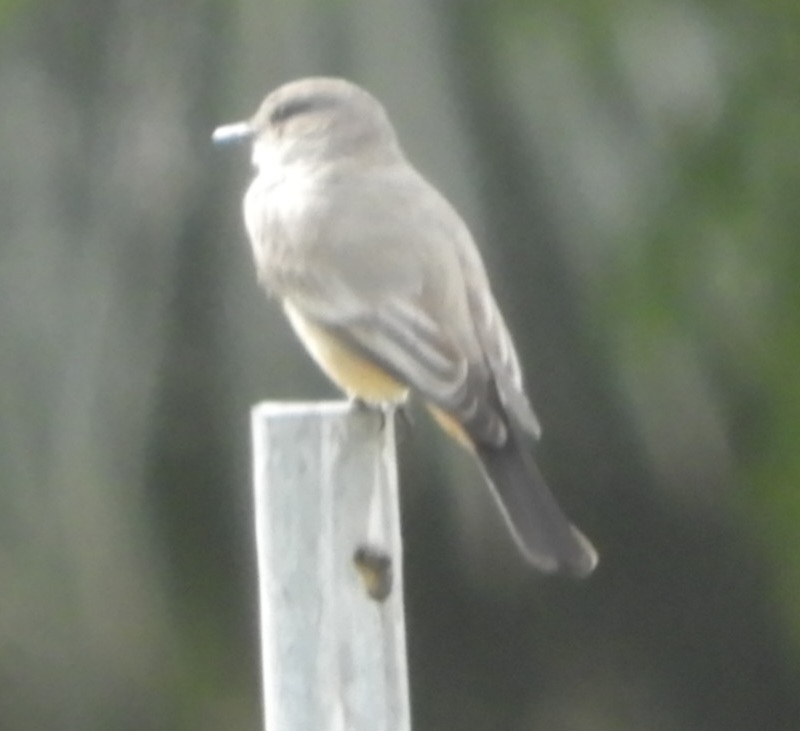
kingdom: Animalia
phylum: Chordata
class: Aves
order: Passeriformes
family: Tyrannidae
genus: Sayornis
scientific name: Sayornis saya
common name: Say's phoebe
